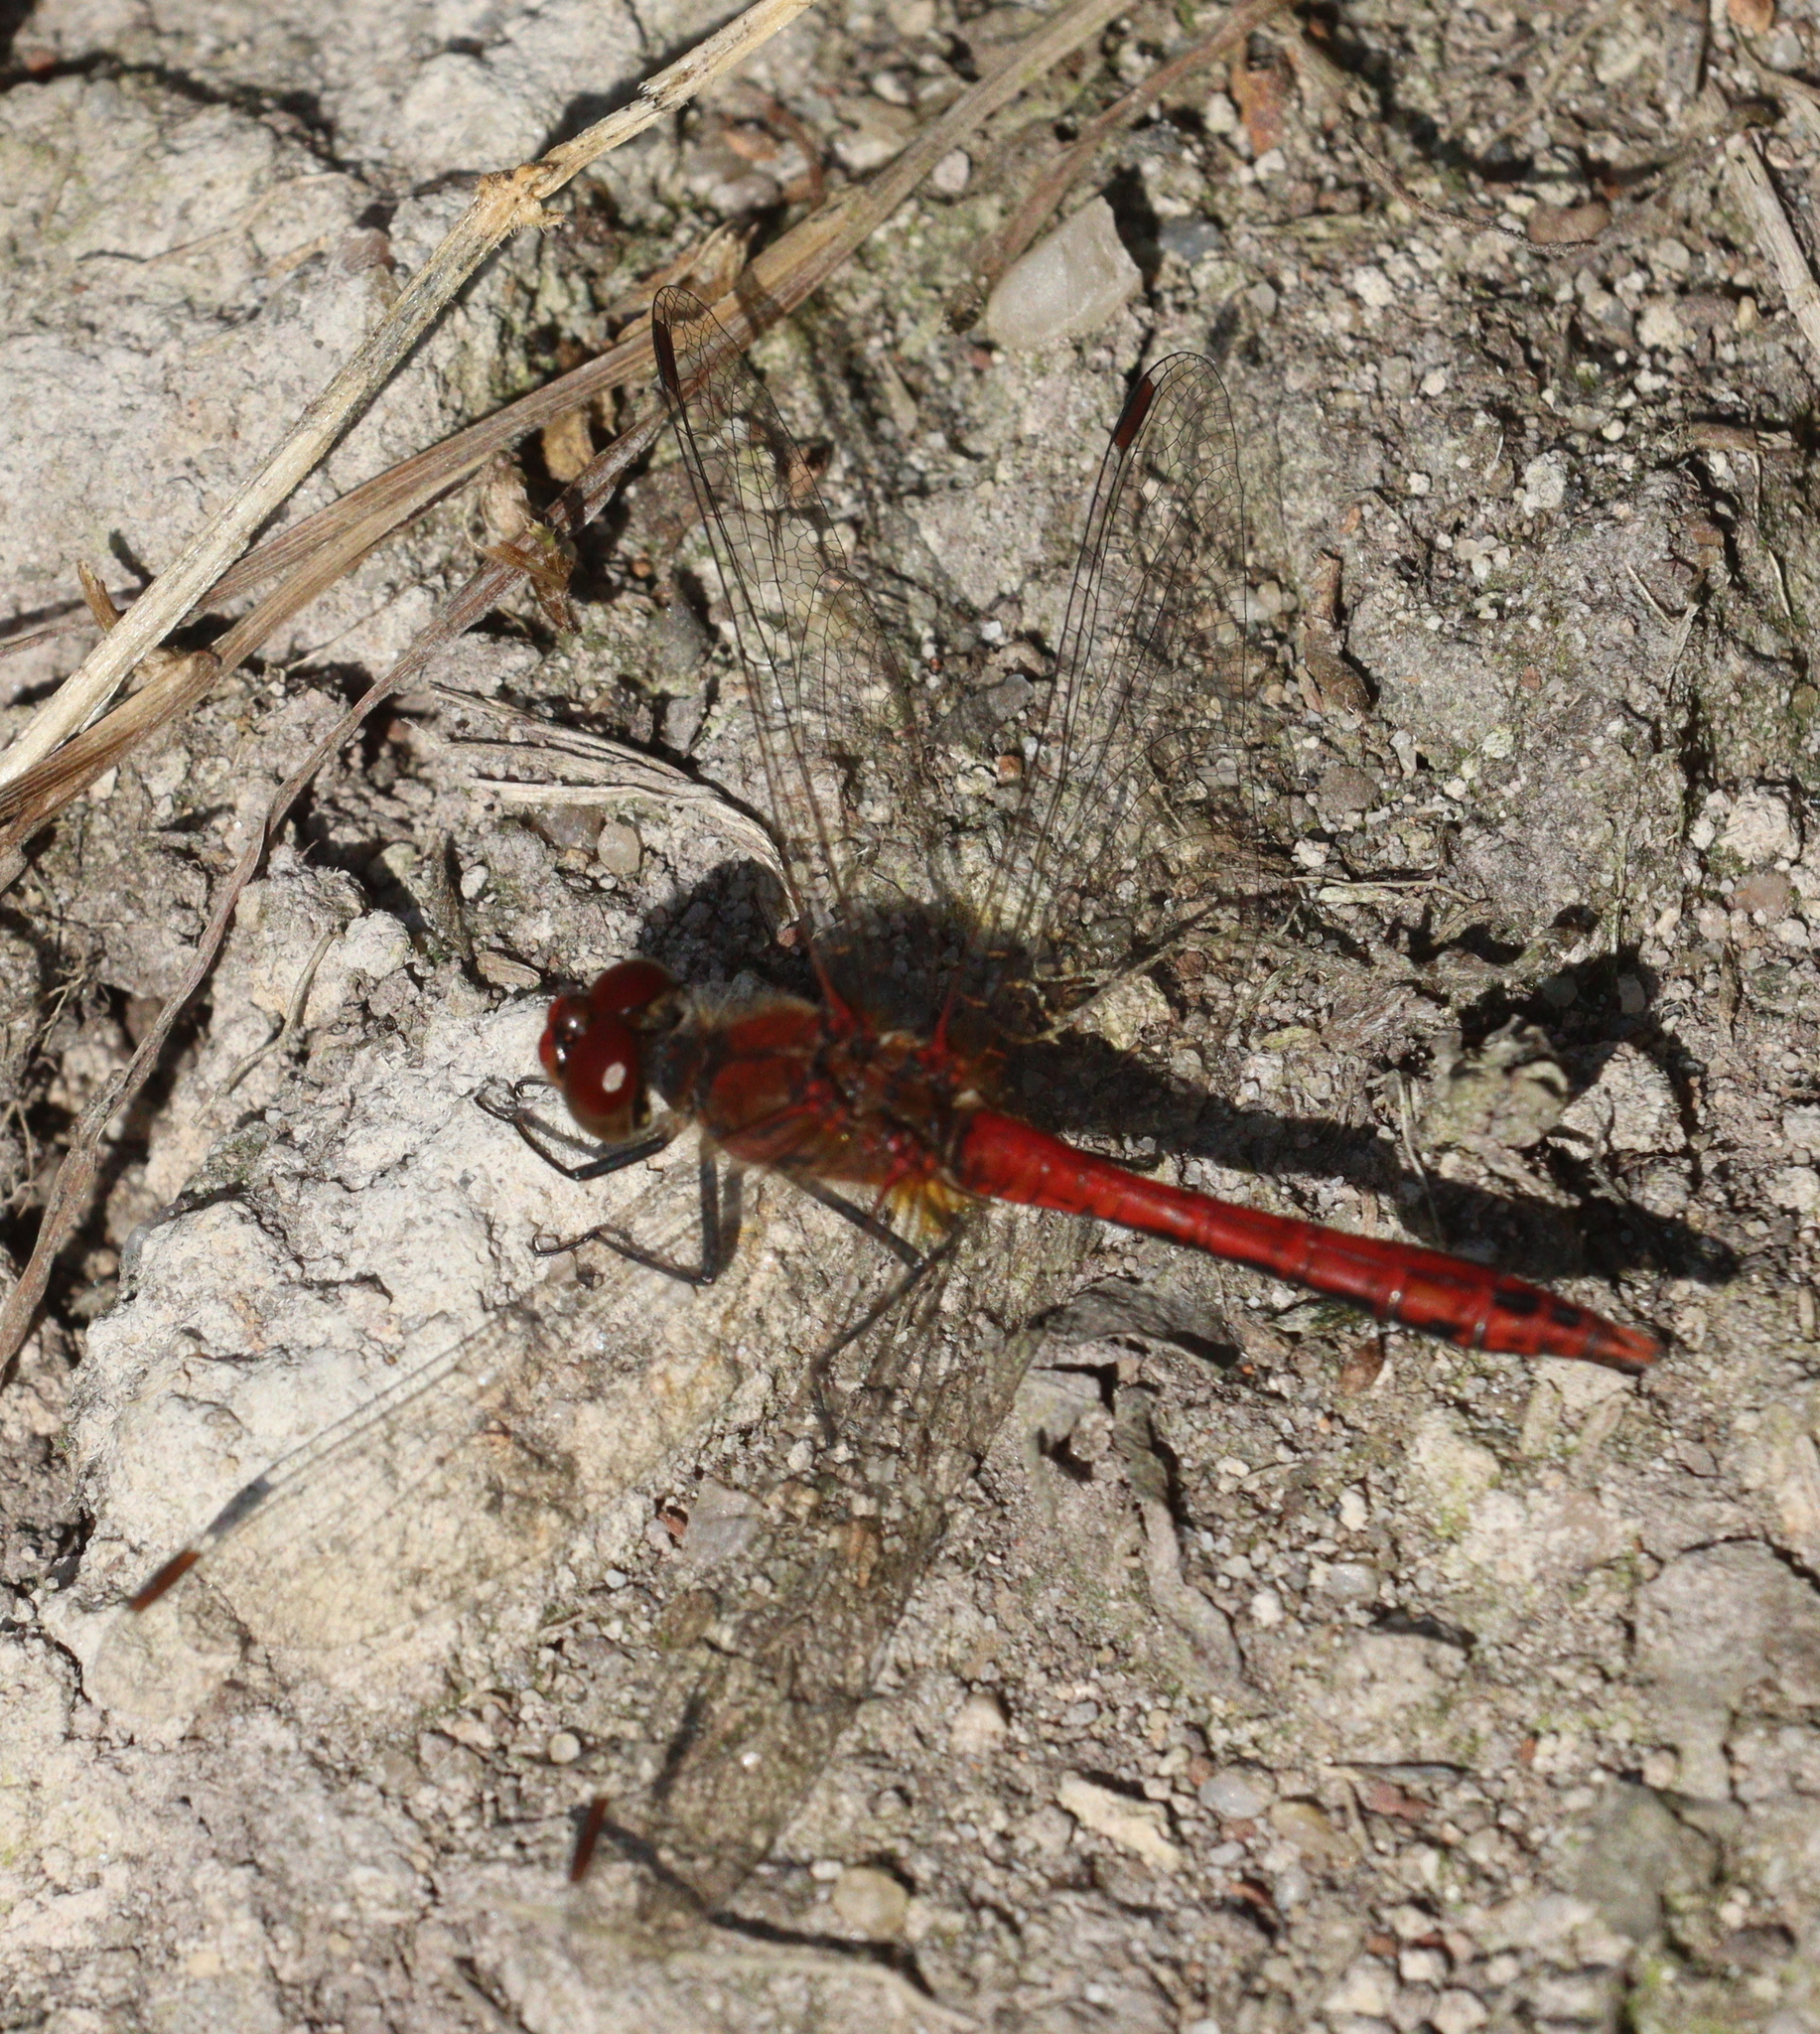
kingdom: Animalia
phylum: Arthropoda
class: Insecta
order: Odonata
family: Libellulidae
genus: Sympetrum
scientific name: Sympetrum sanguineum
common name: Ruddy darter
